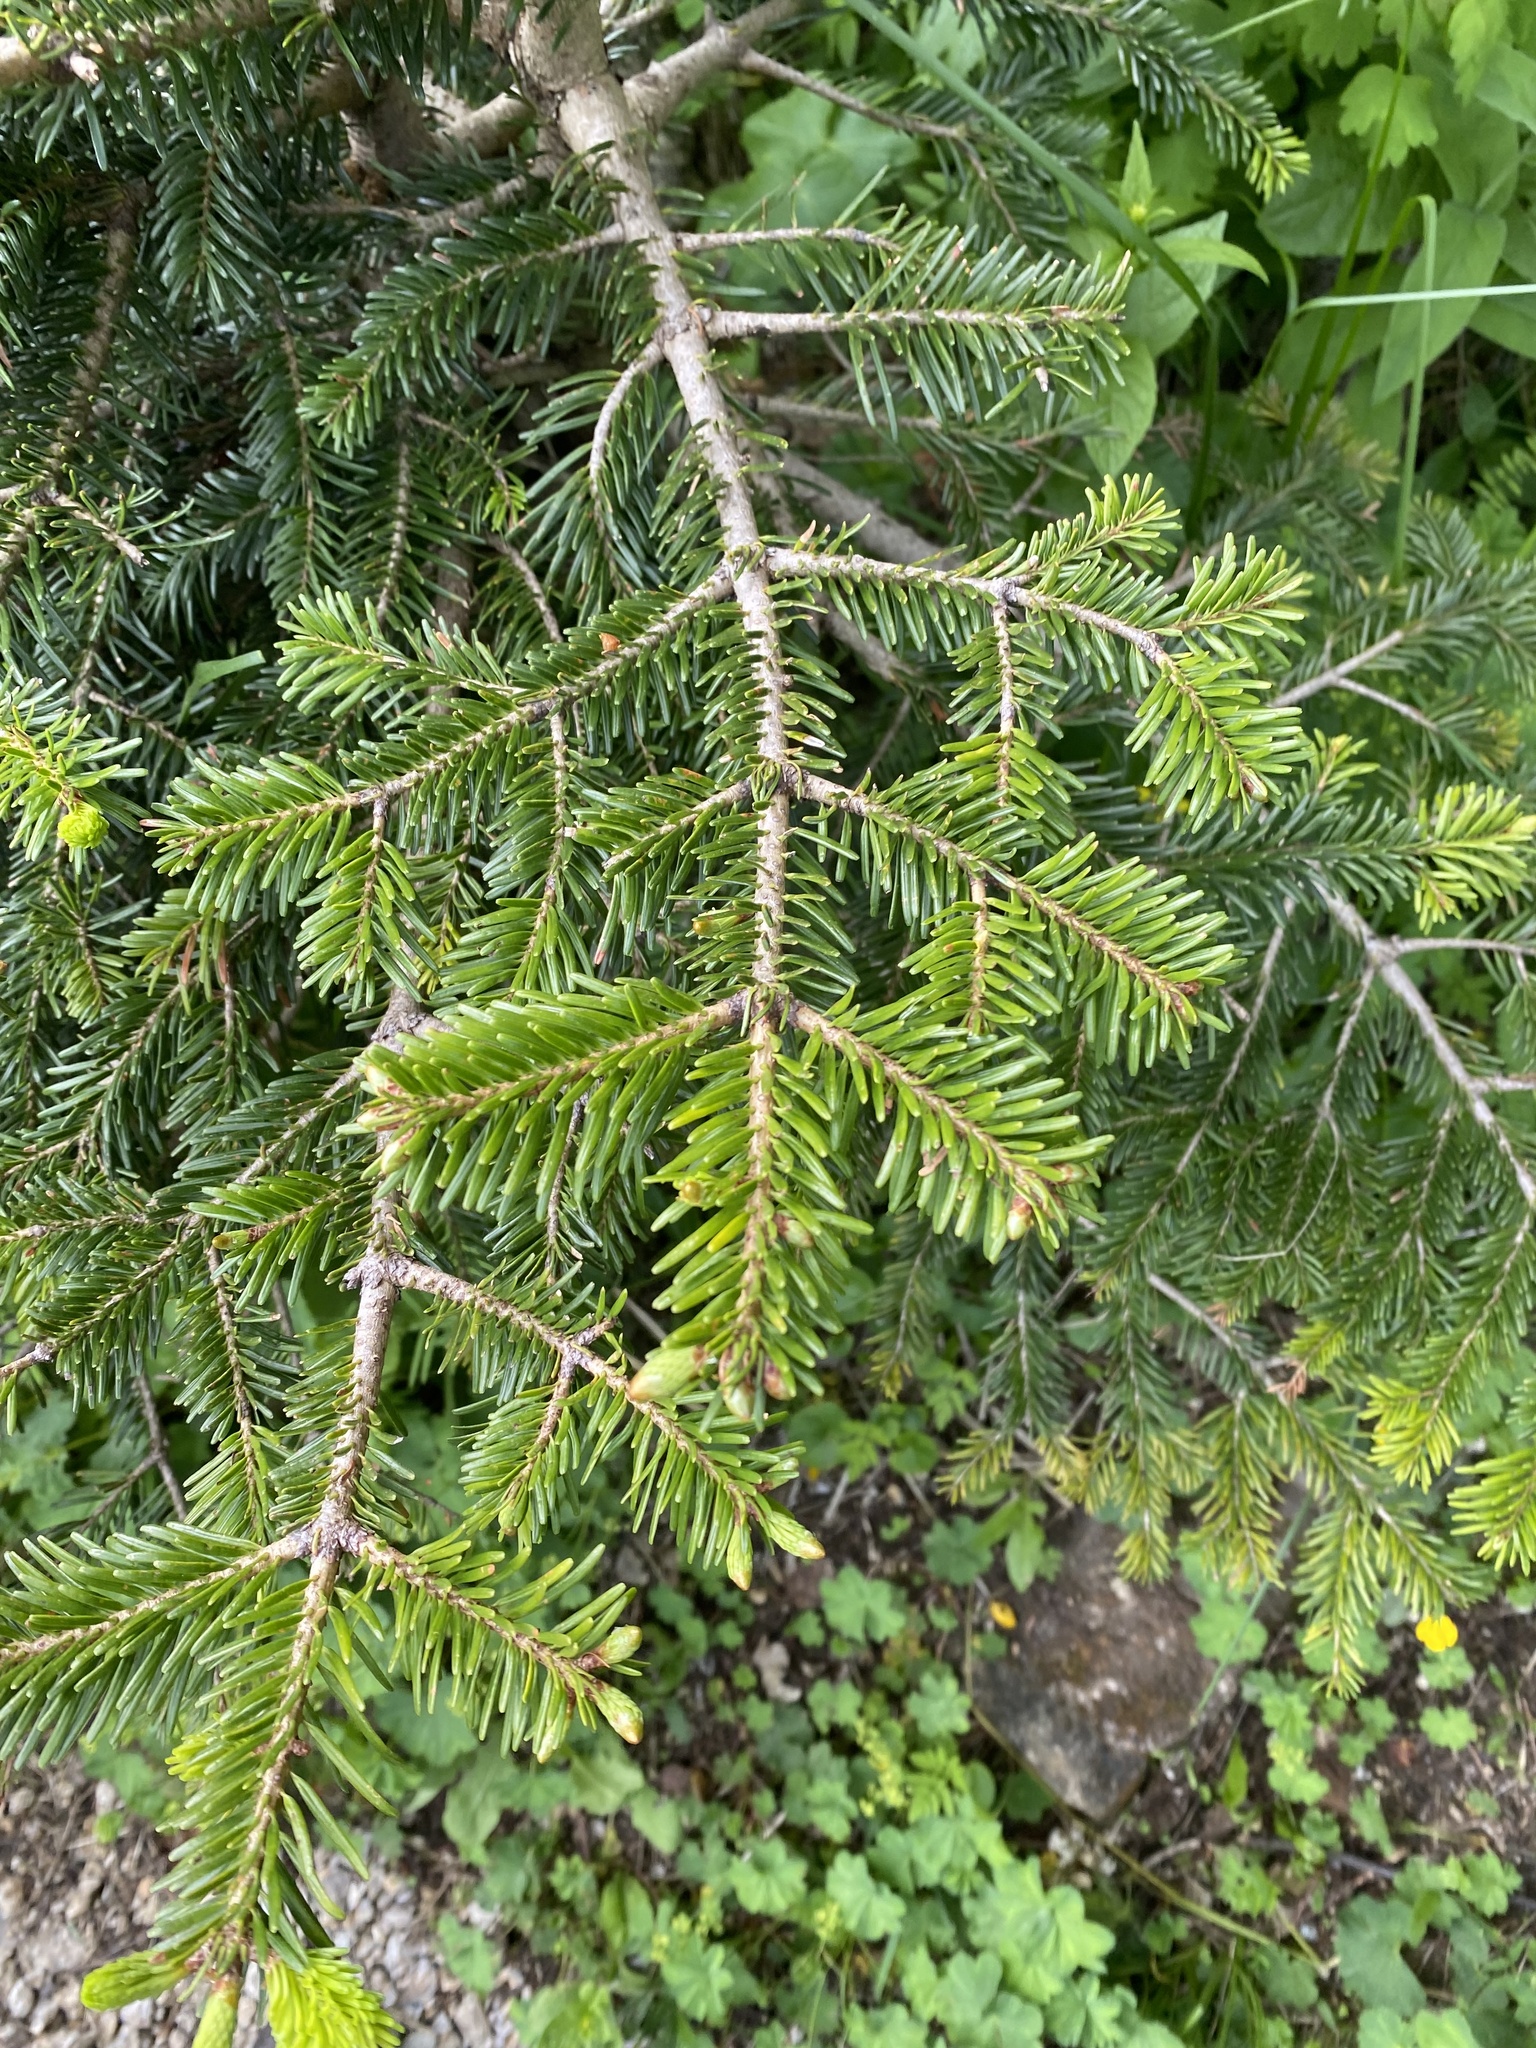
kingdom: Plantae
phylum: Tracheophyta
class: Pinopsida
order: Pinales
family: Pinaceae
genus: Abies
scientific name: Abies nordmanniana
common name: Caucasian fir
